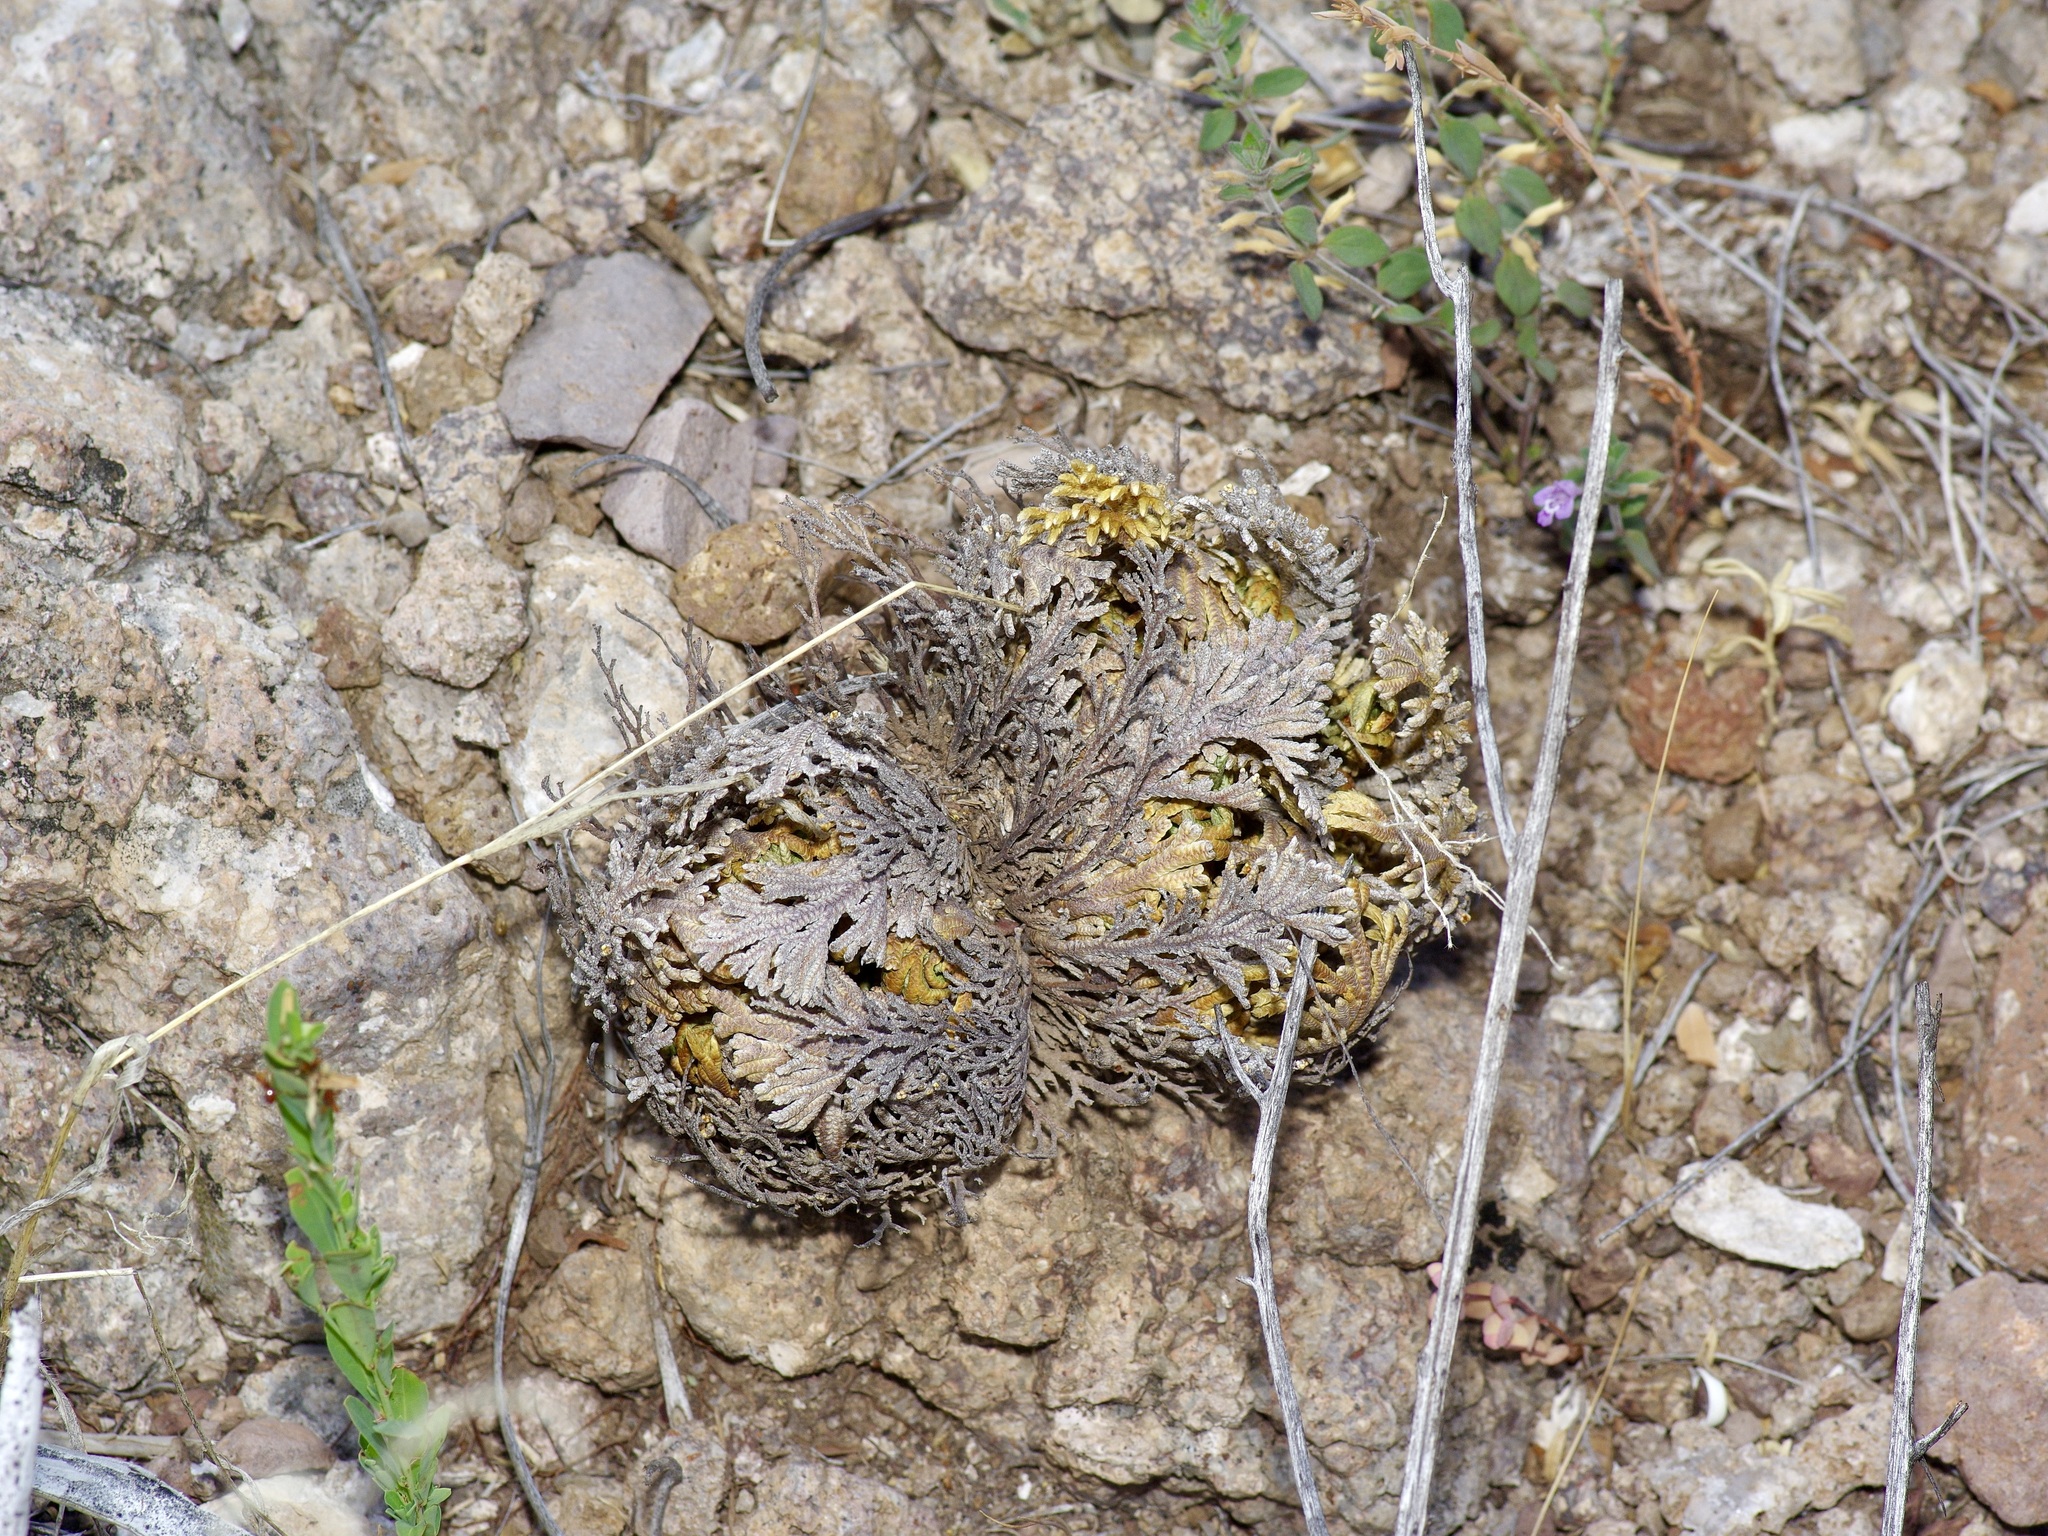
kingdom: Plantae
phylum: Tracheophyta
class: Lycopodiopsida
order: Selaginellales
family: Selaginellaceae
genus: Selaginella
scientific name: Selaginella lepidophylla
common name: Rose-of-jericho
